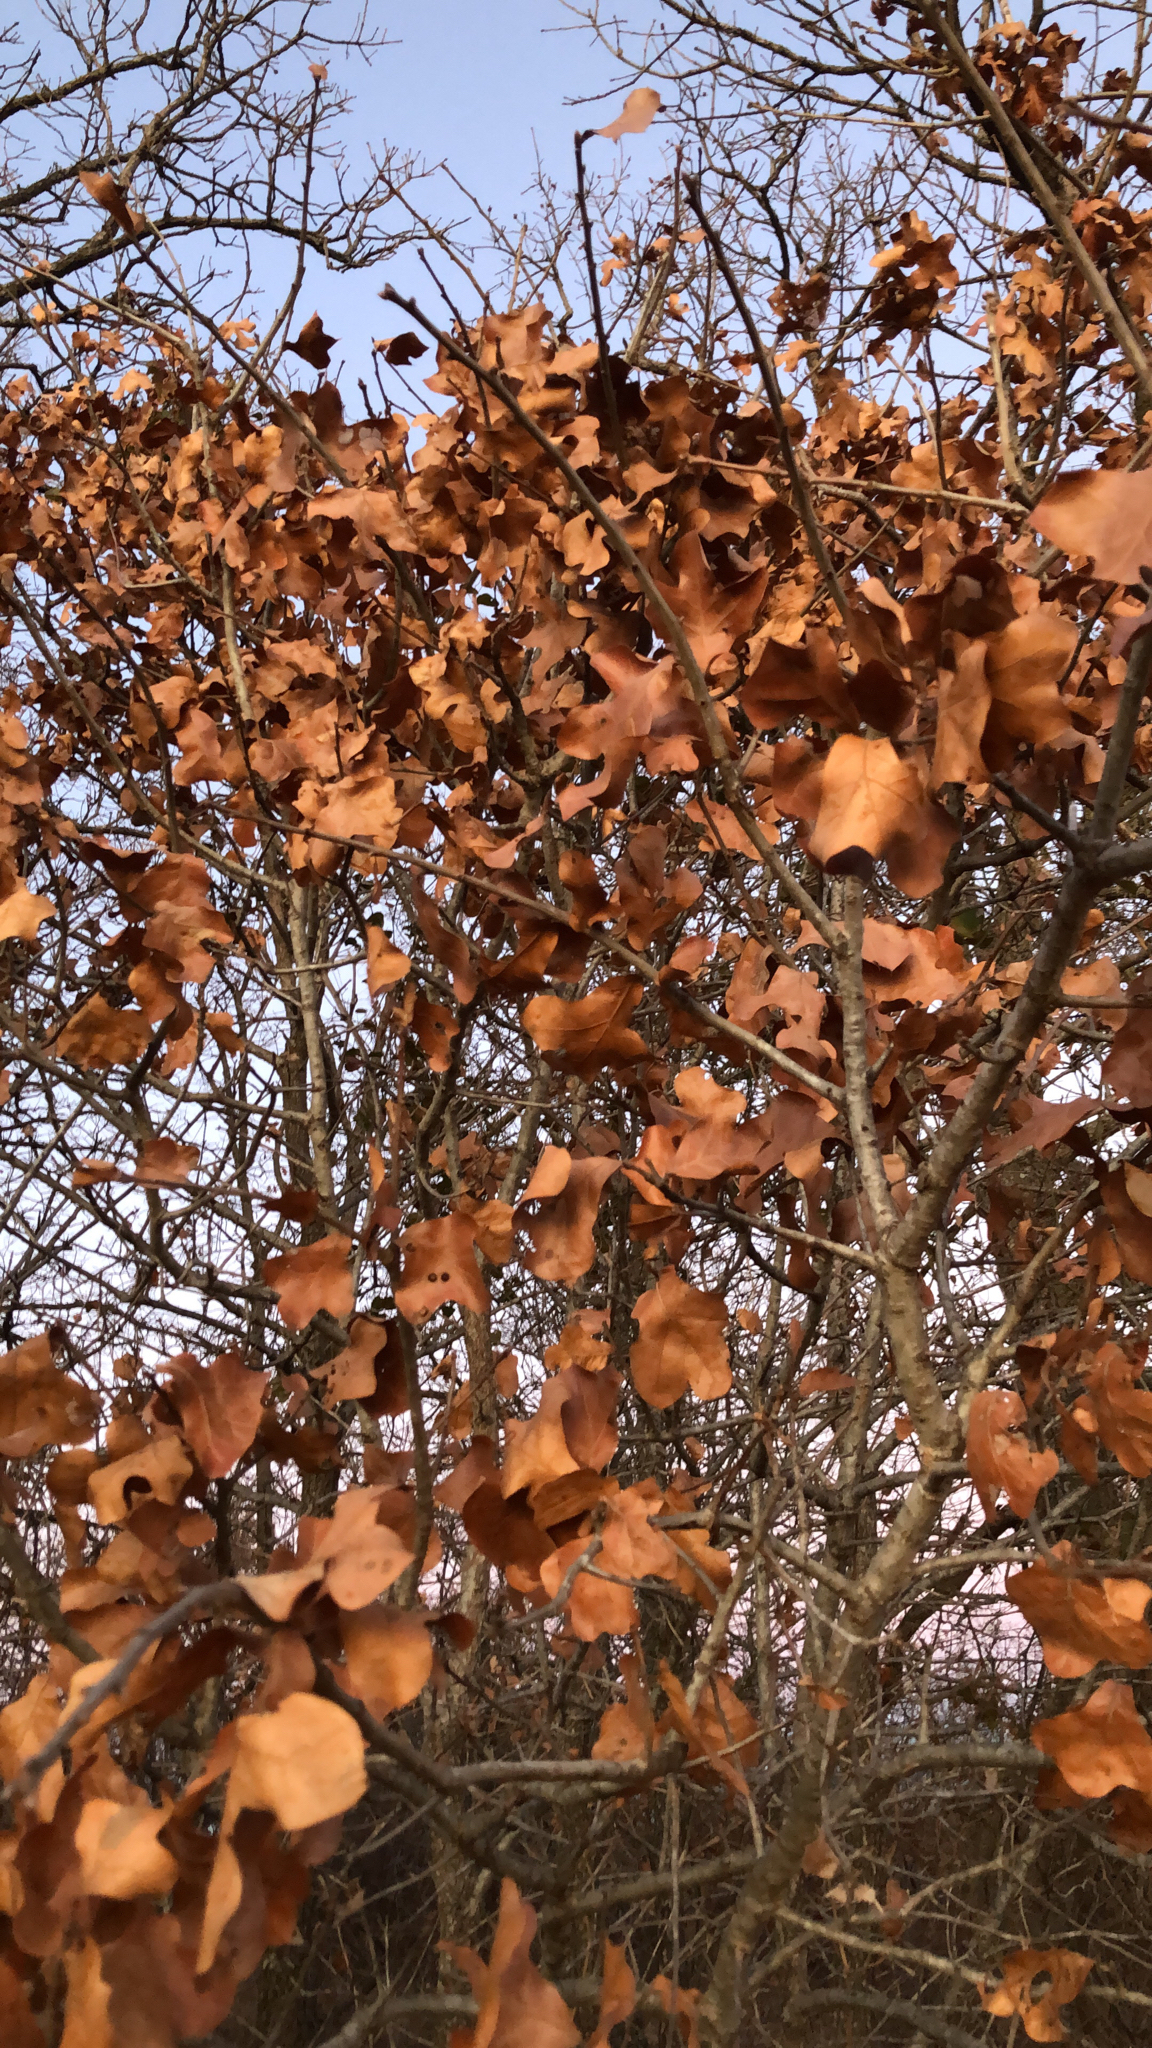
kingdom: Plantae
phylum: Tracheophyta
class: Magnoliopsida
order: Fagales
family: Fagaceae
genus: Quercus
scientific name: Quercus marilandica
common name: Blackjack oak
